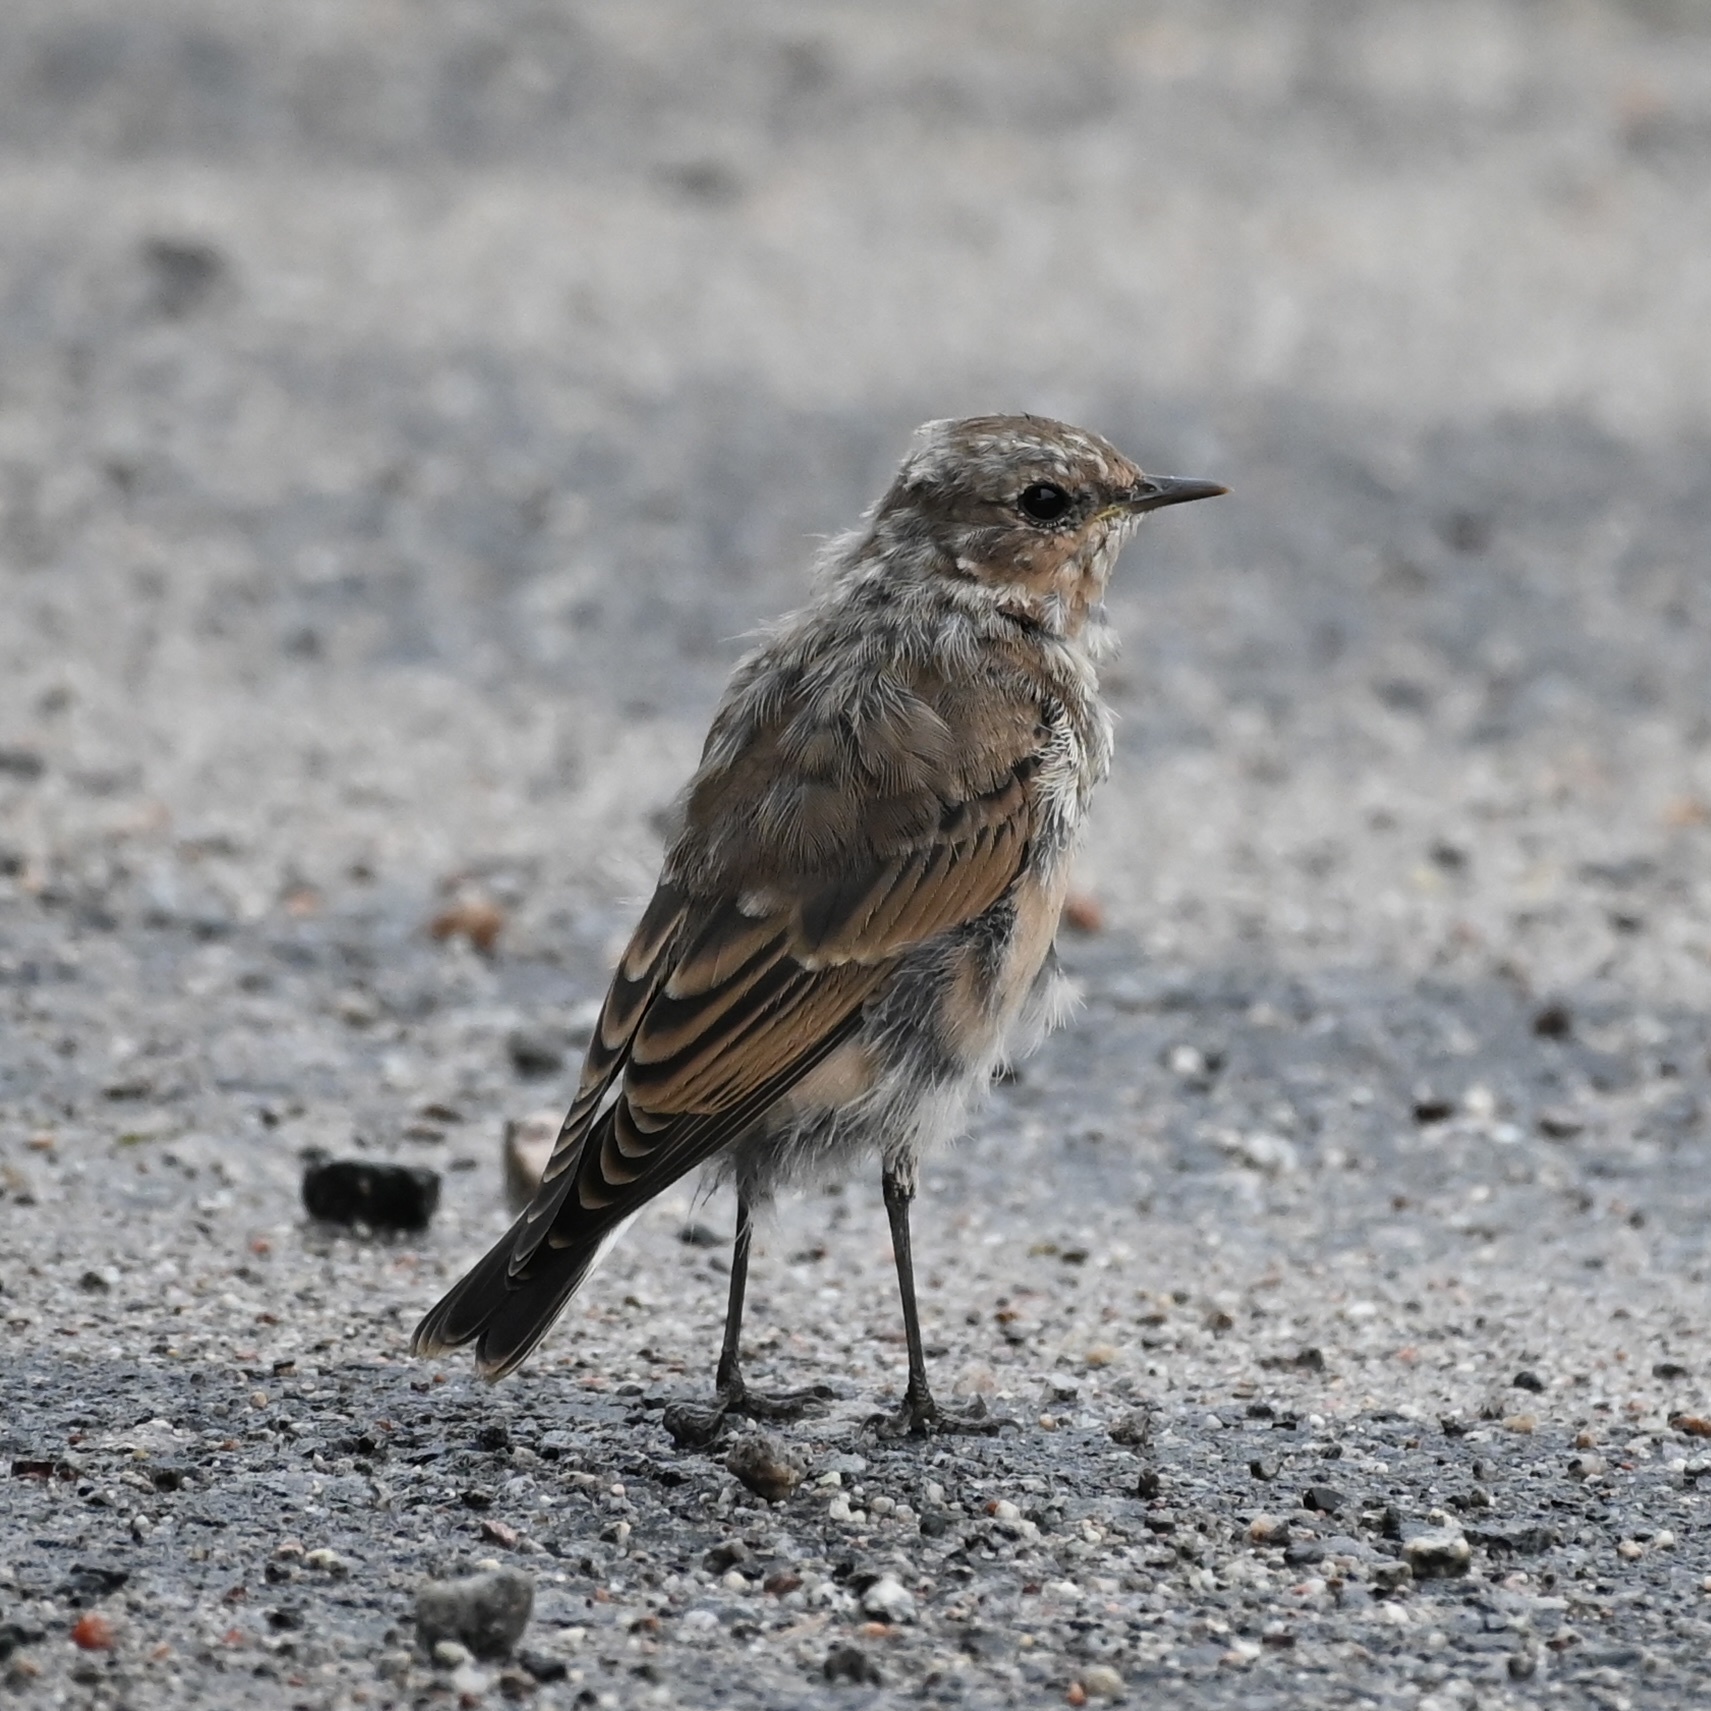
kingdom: Animalia
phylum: Chordata
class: Aves
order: Passeriformes
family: Muscicapidae
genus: Oenanthe
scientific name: Oenanthe oenanthe
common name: Northern wheatear
